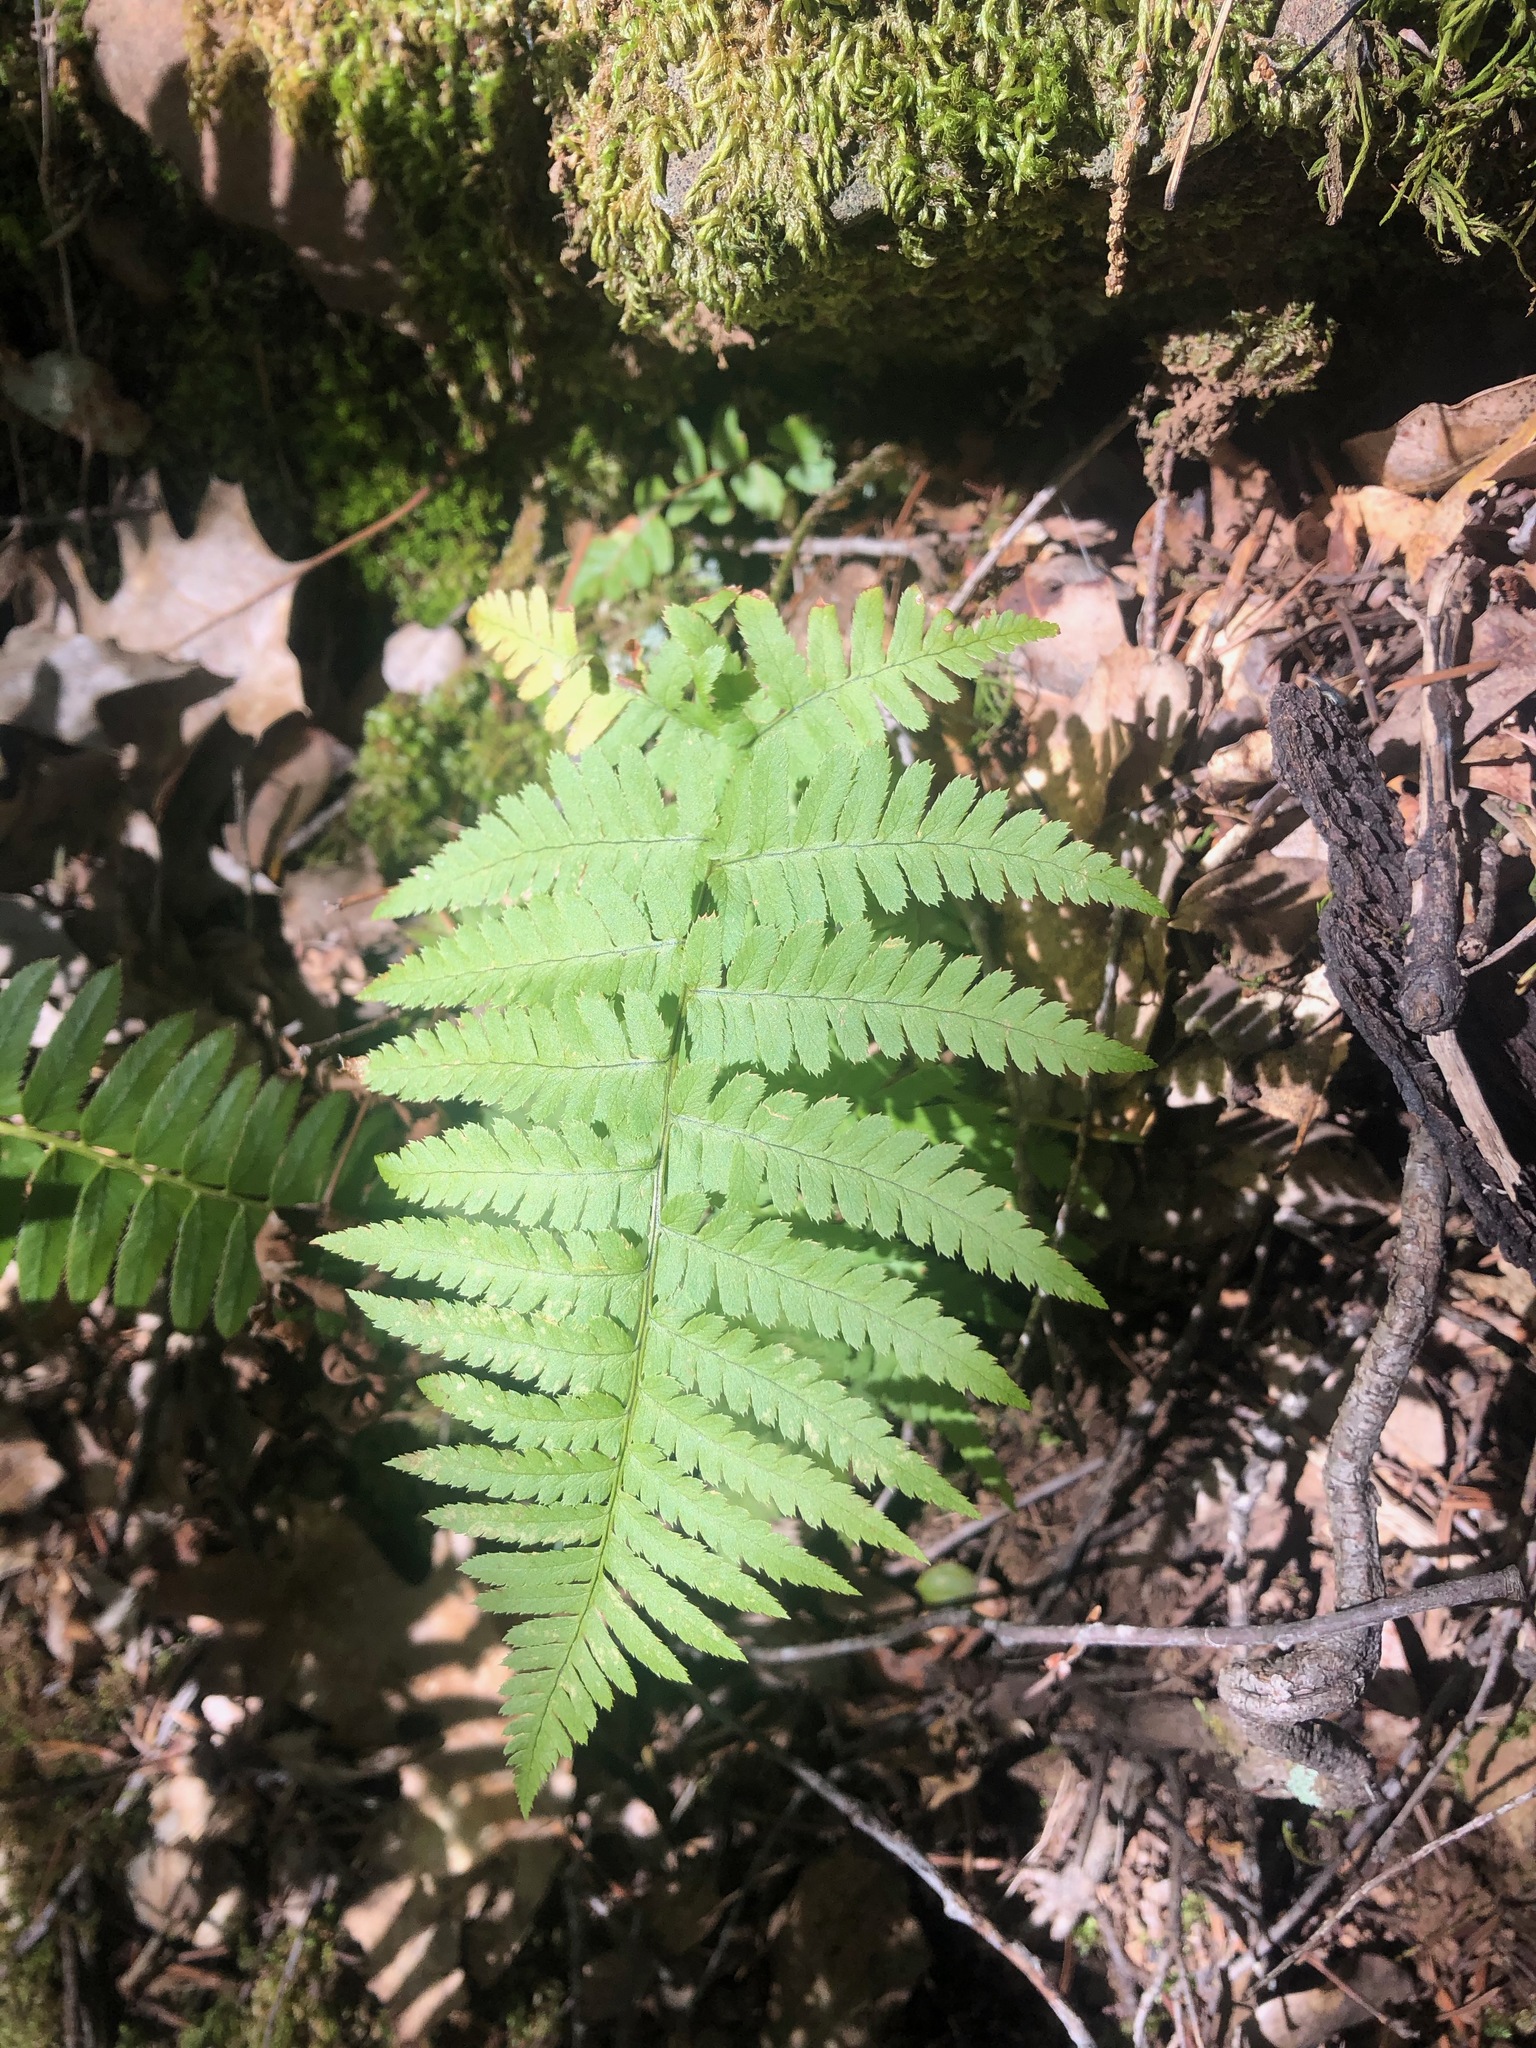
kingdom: Plantae
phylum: Tracheophyta
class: Polypodiopsida
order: Polypodiales
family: Dryopteridaceae
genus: Dryopteris
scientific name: Dryopteris arguta
